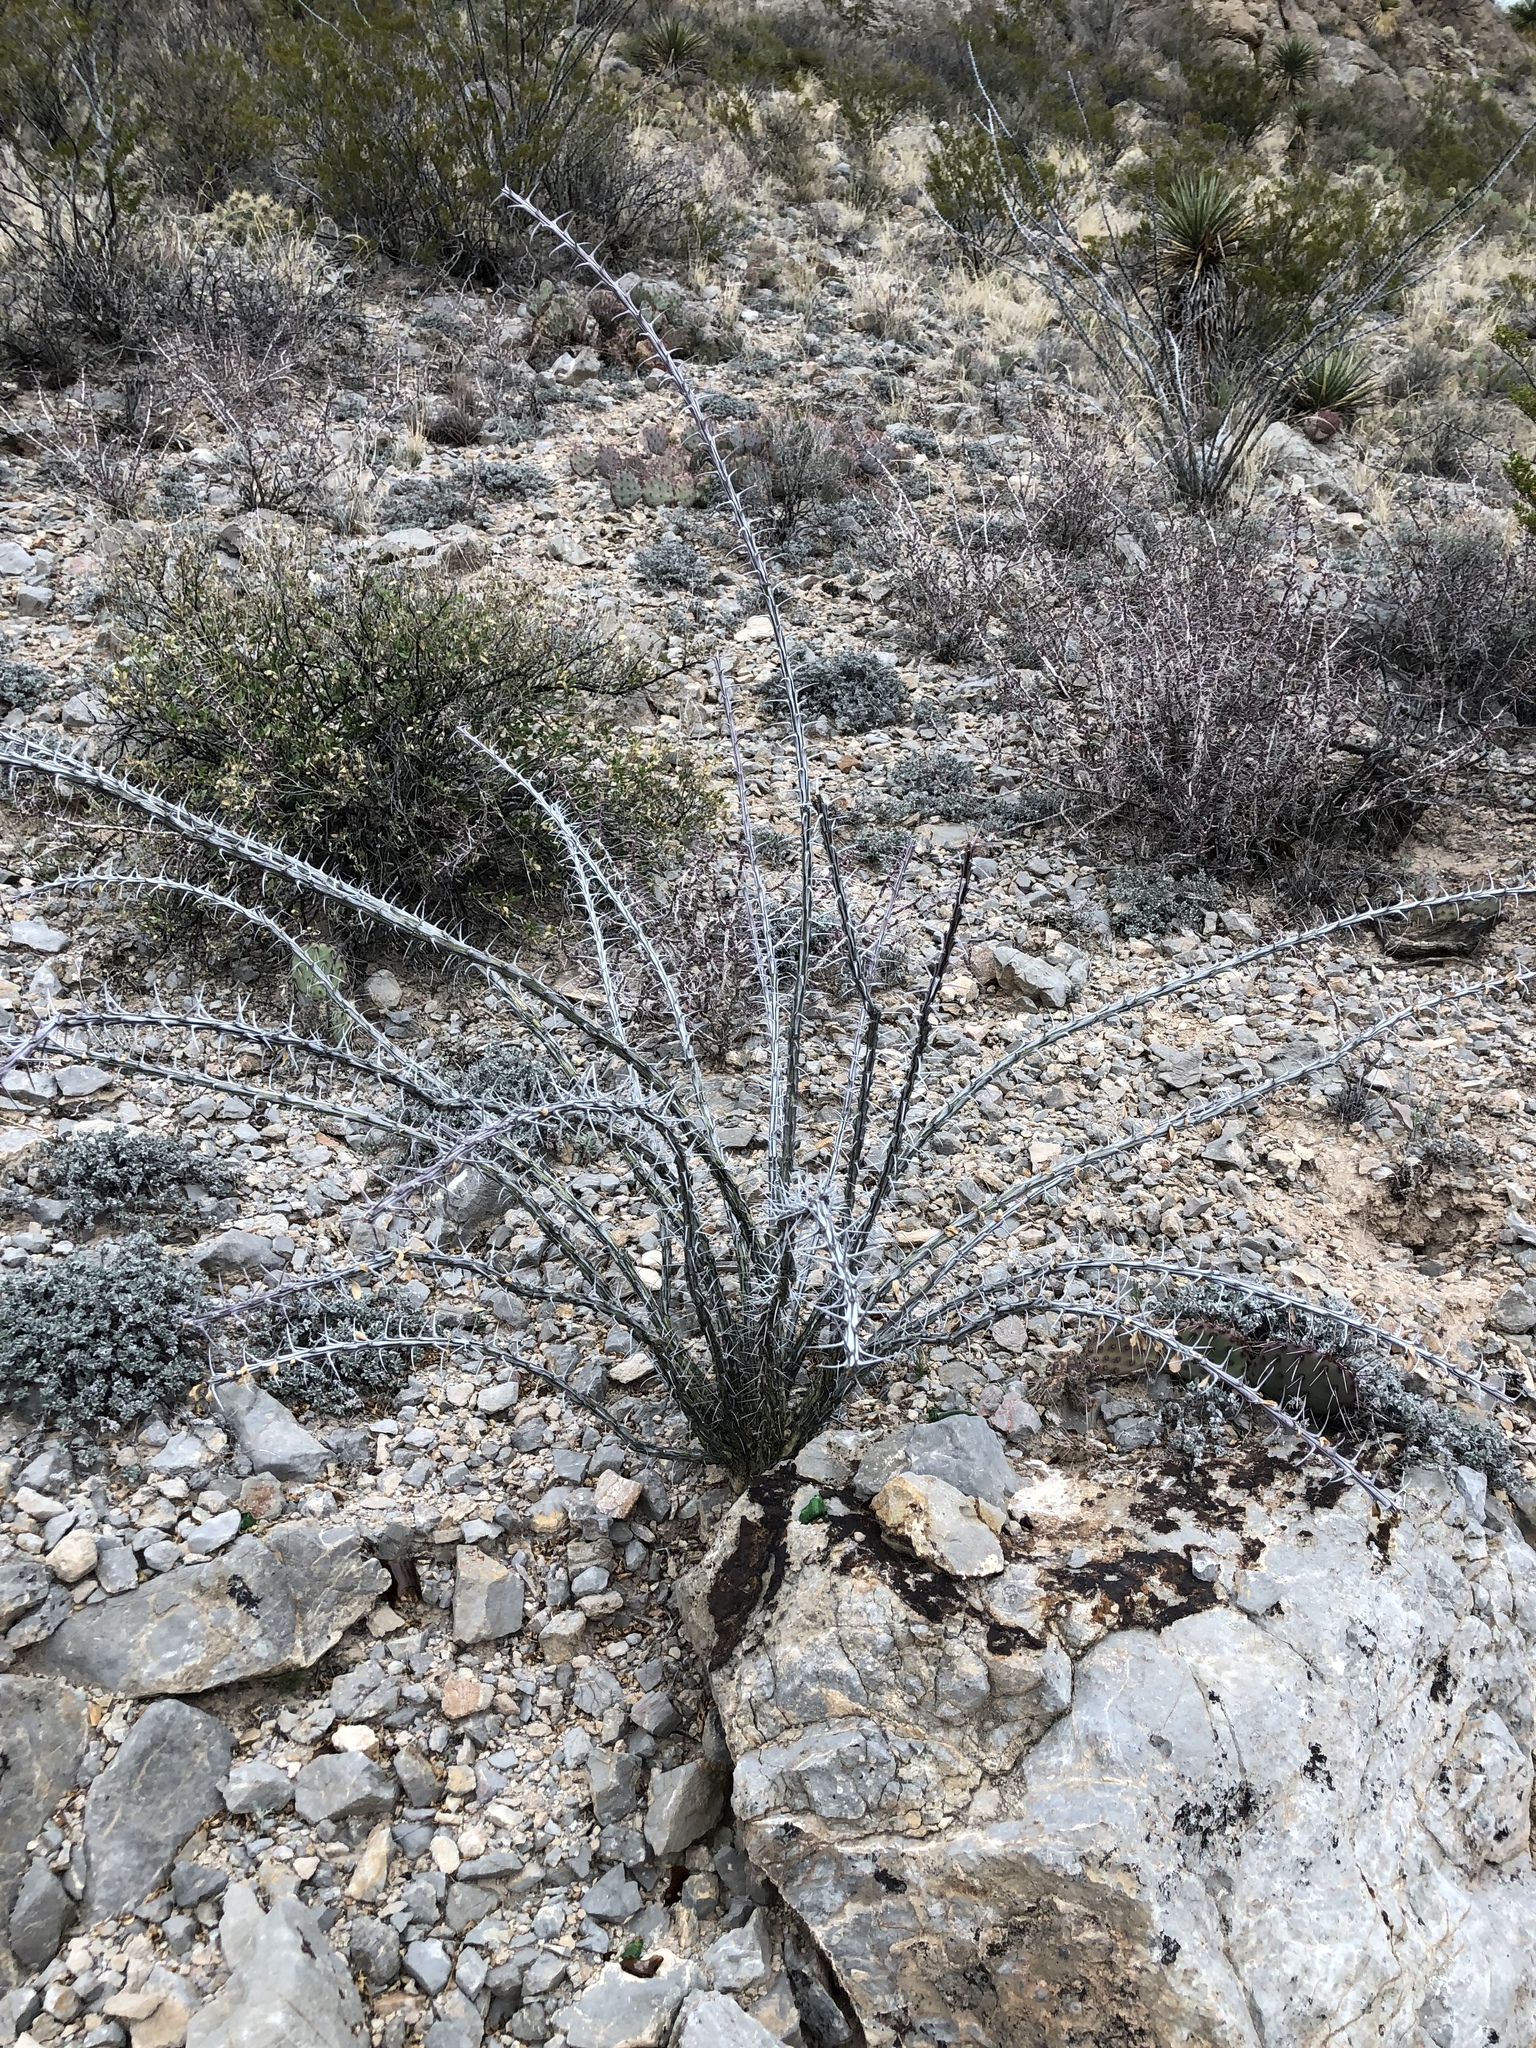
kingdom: Plantae
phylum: Tracheophyta
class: Magnoliopsida
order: Ericales
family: Fouquieriaceae
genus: Fouquieria
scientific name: Fouquieria splendens
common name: Vine-cactus
